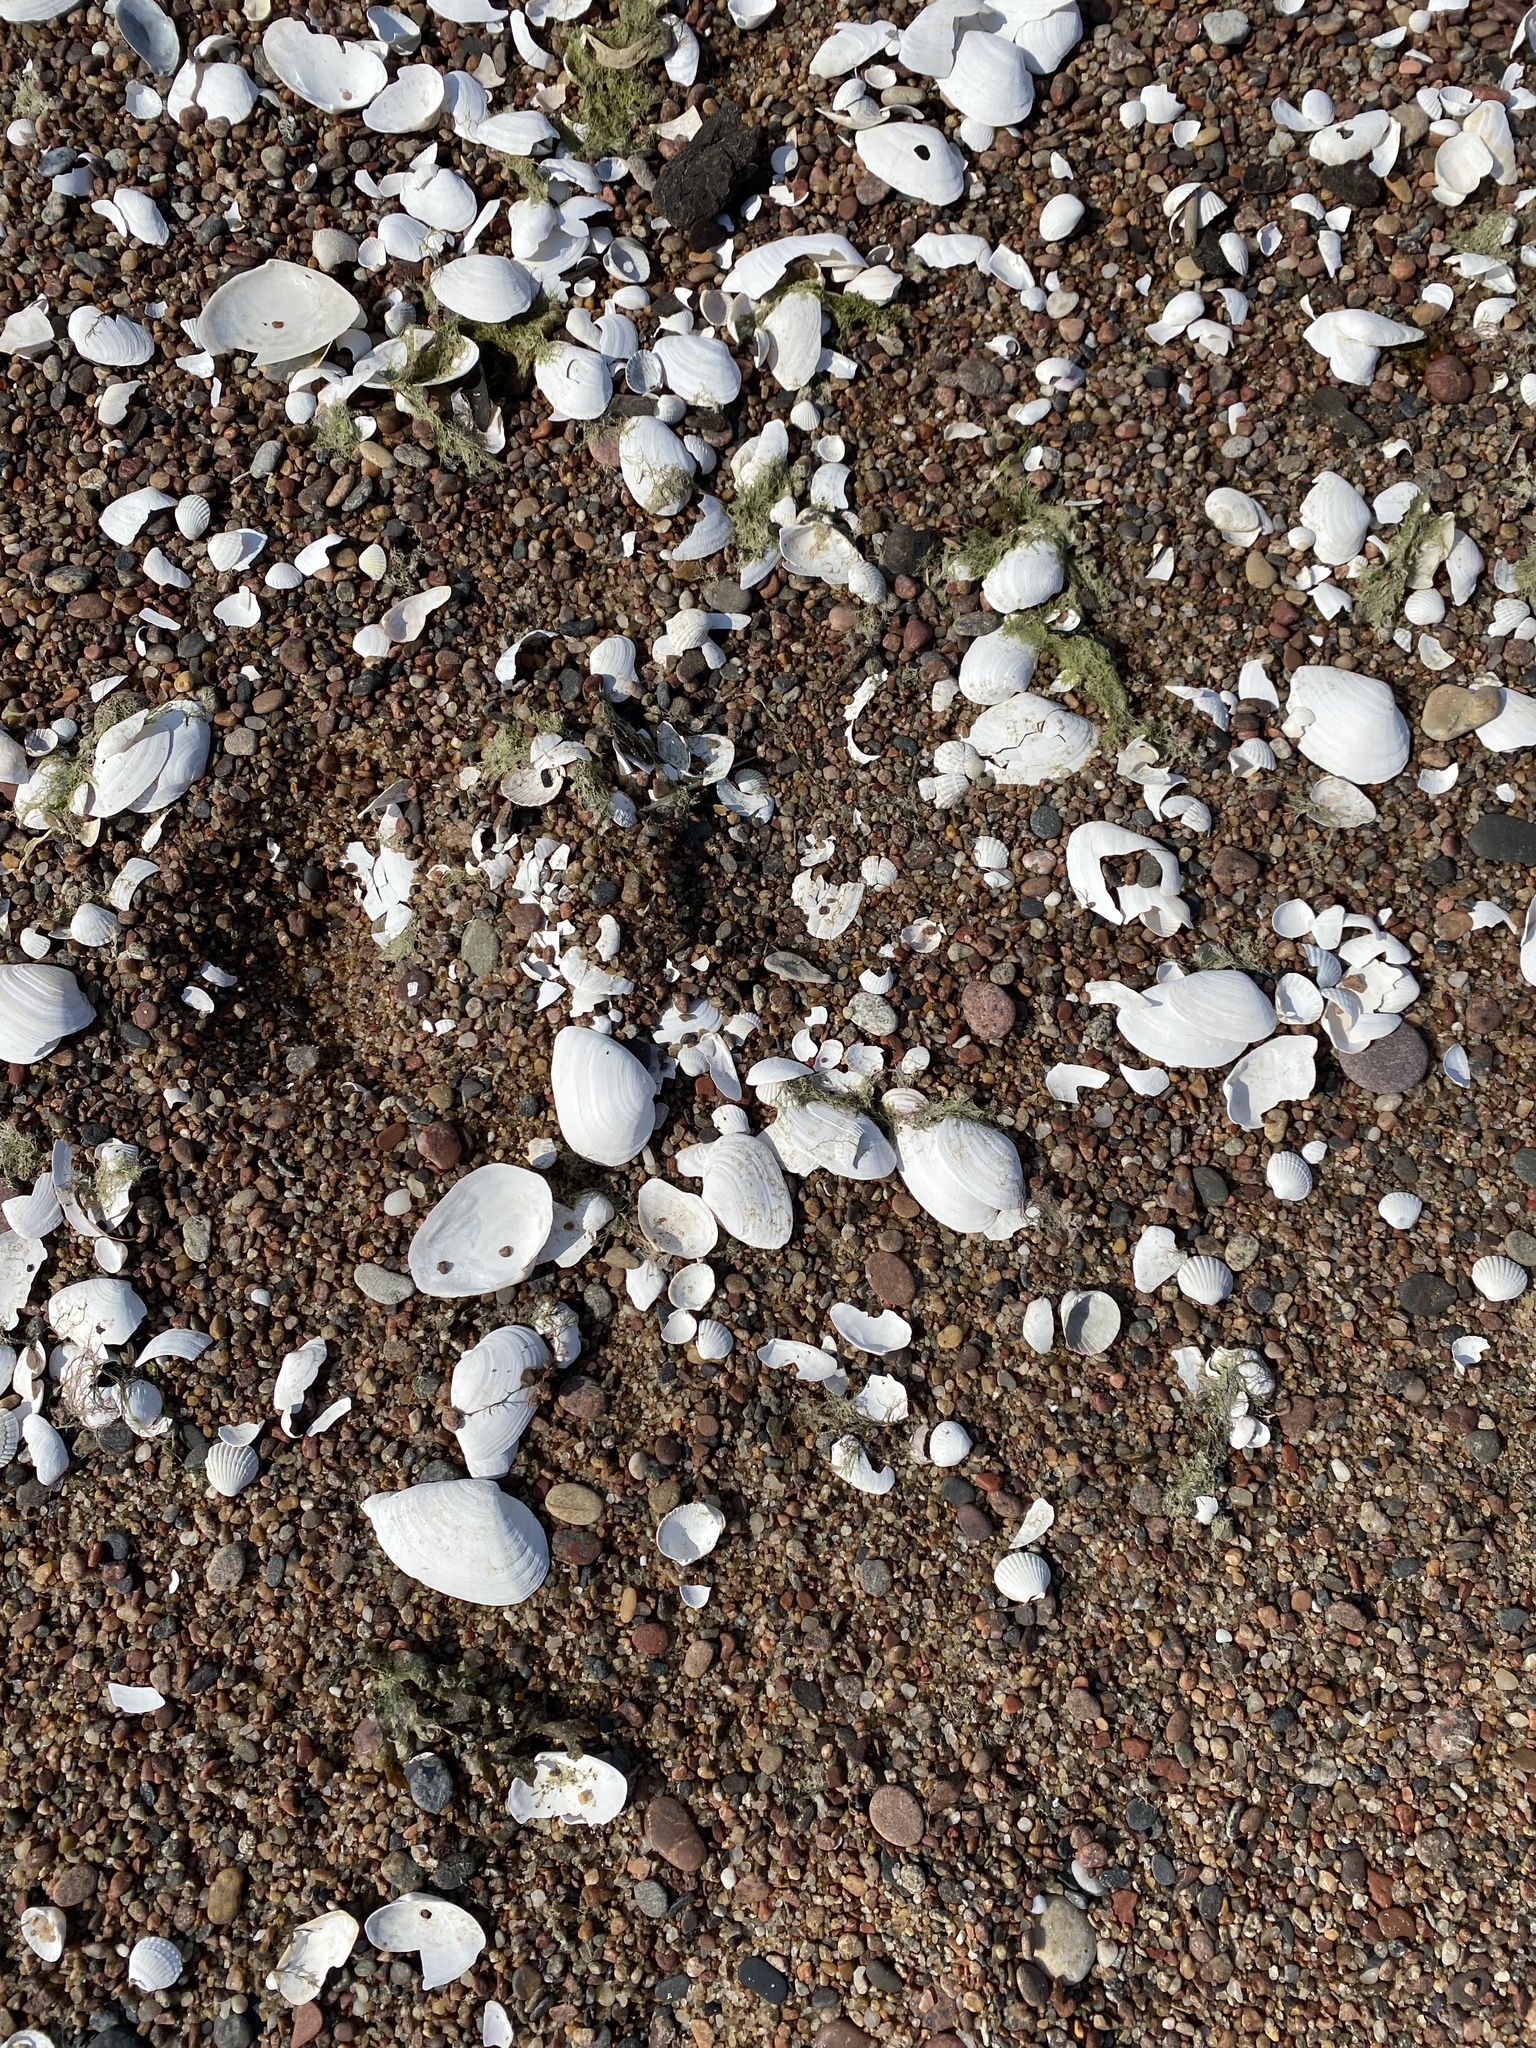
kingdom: Animalia
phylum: Mollusca
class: Bivalvia
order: Myida
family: Myidae
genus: Mya
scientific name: Mya arenaria
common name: Soft-shelled clam
